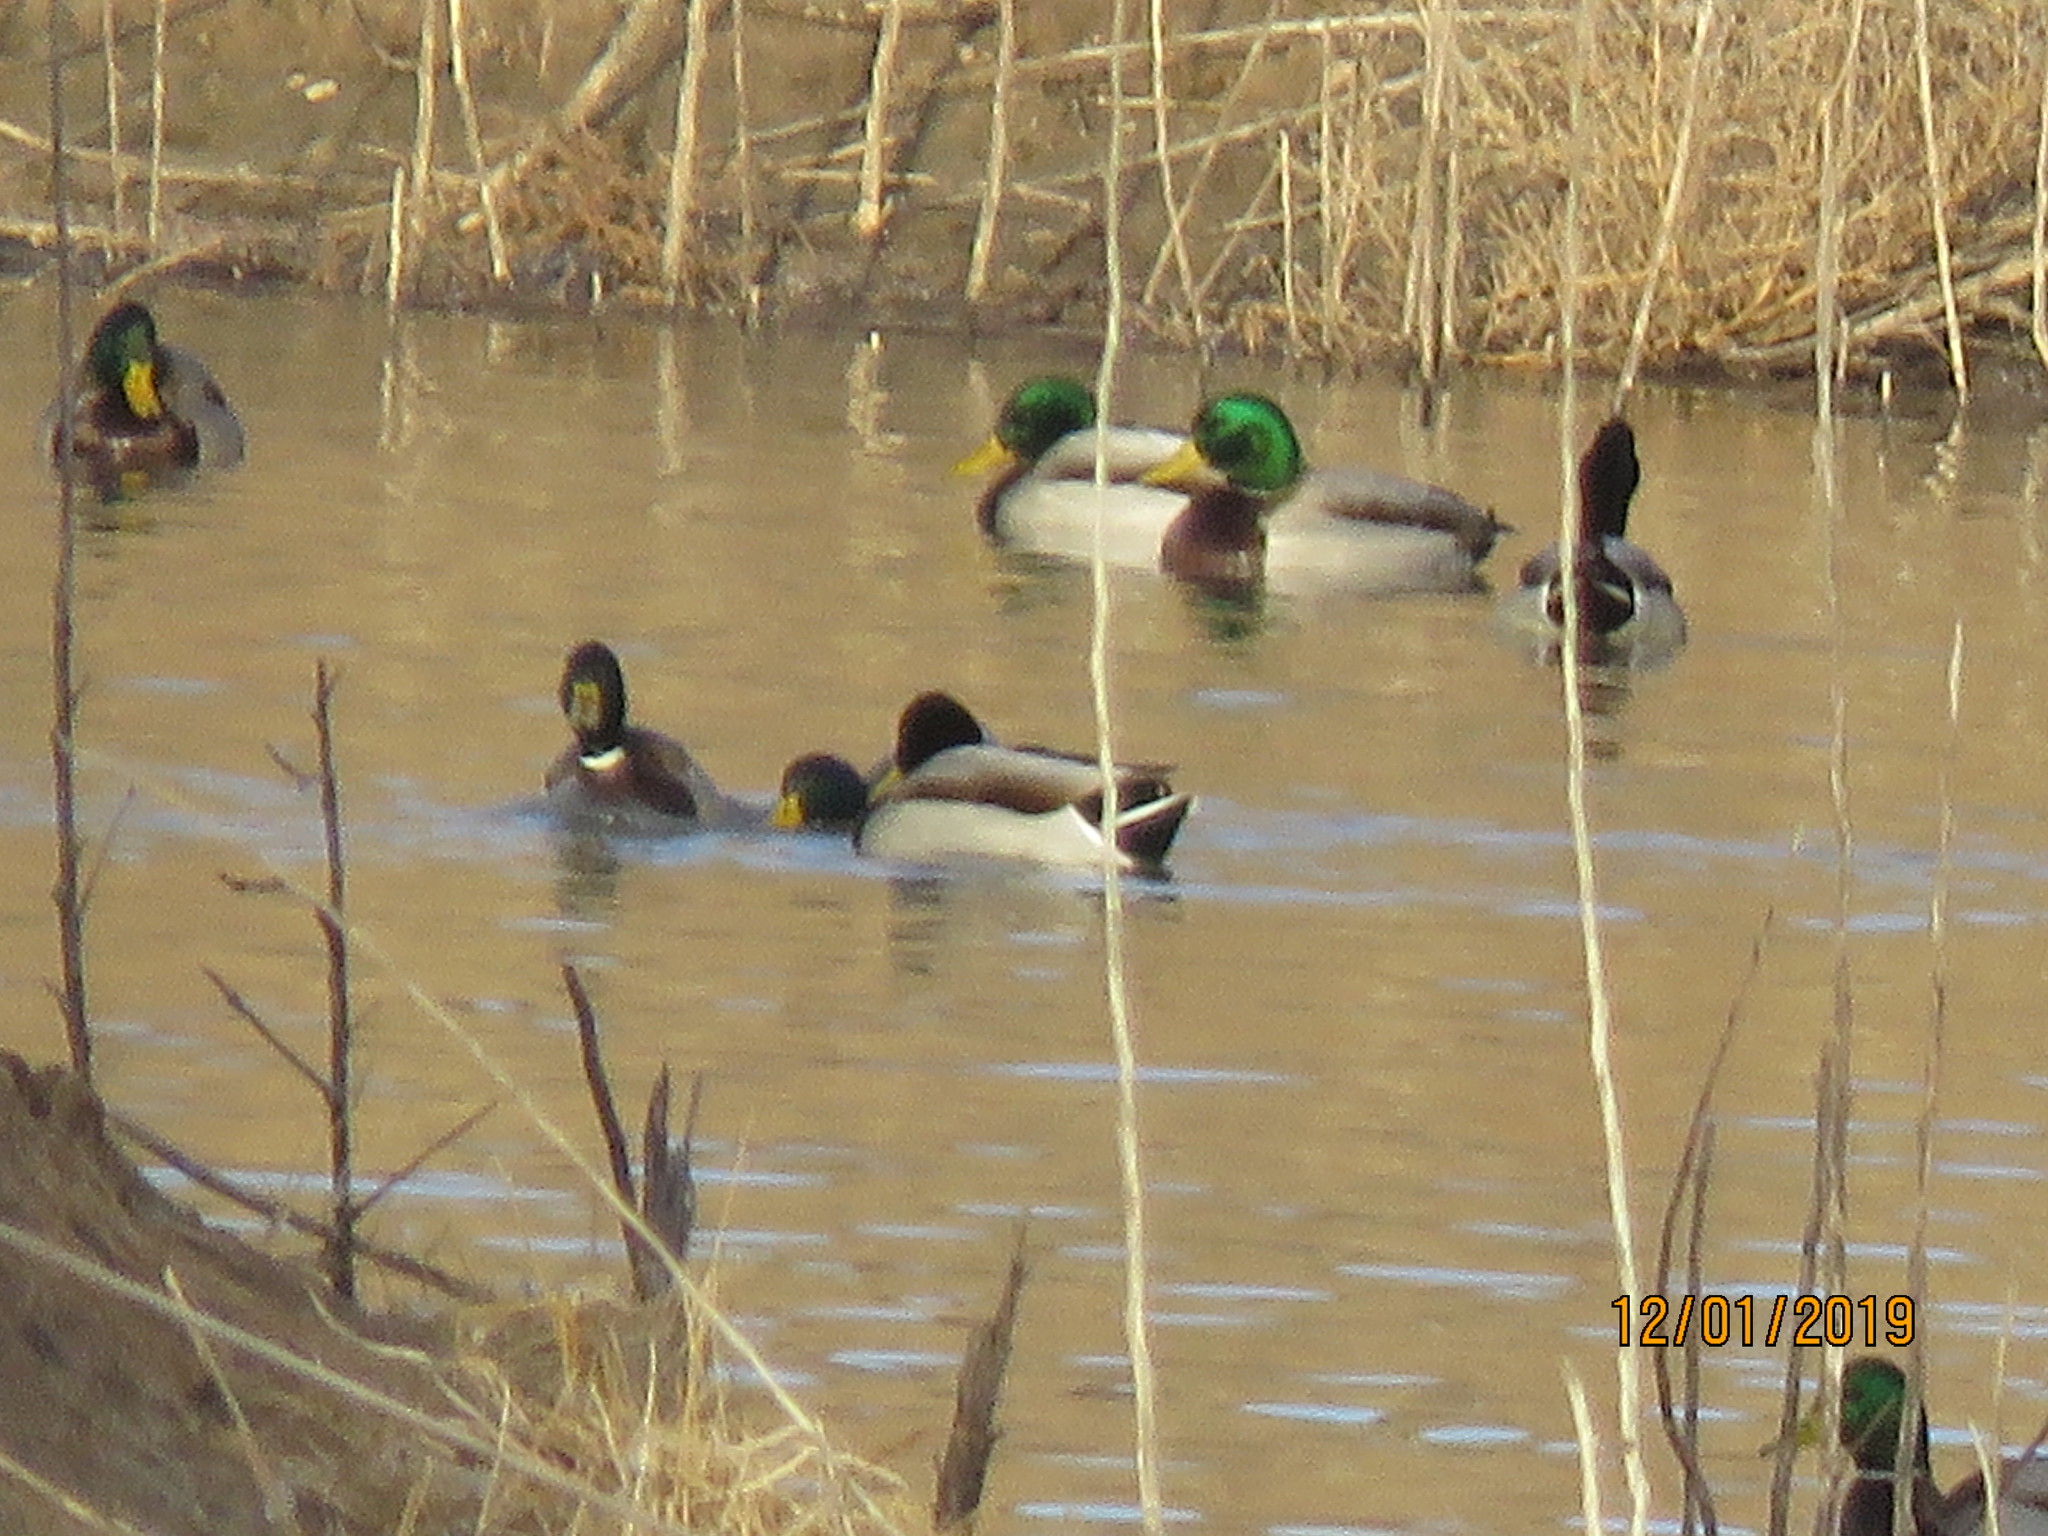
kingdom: Animalia
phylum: Chordata
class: Aves
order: Anseriformes
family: Anatidae
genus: Anas
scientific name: Anas platyrhynchos
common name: Mallard
